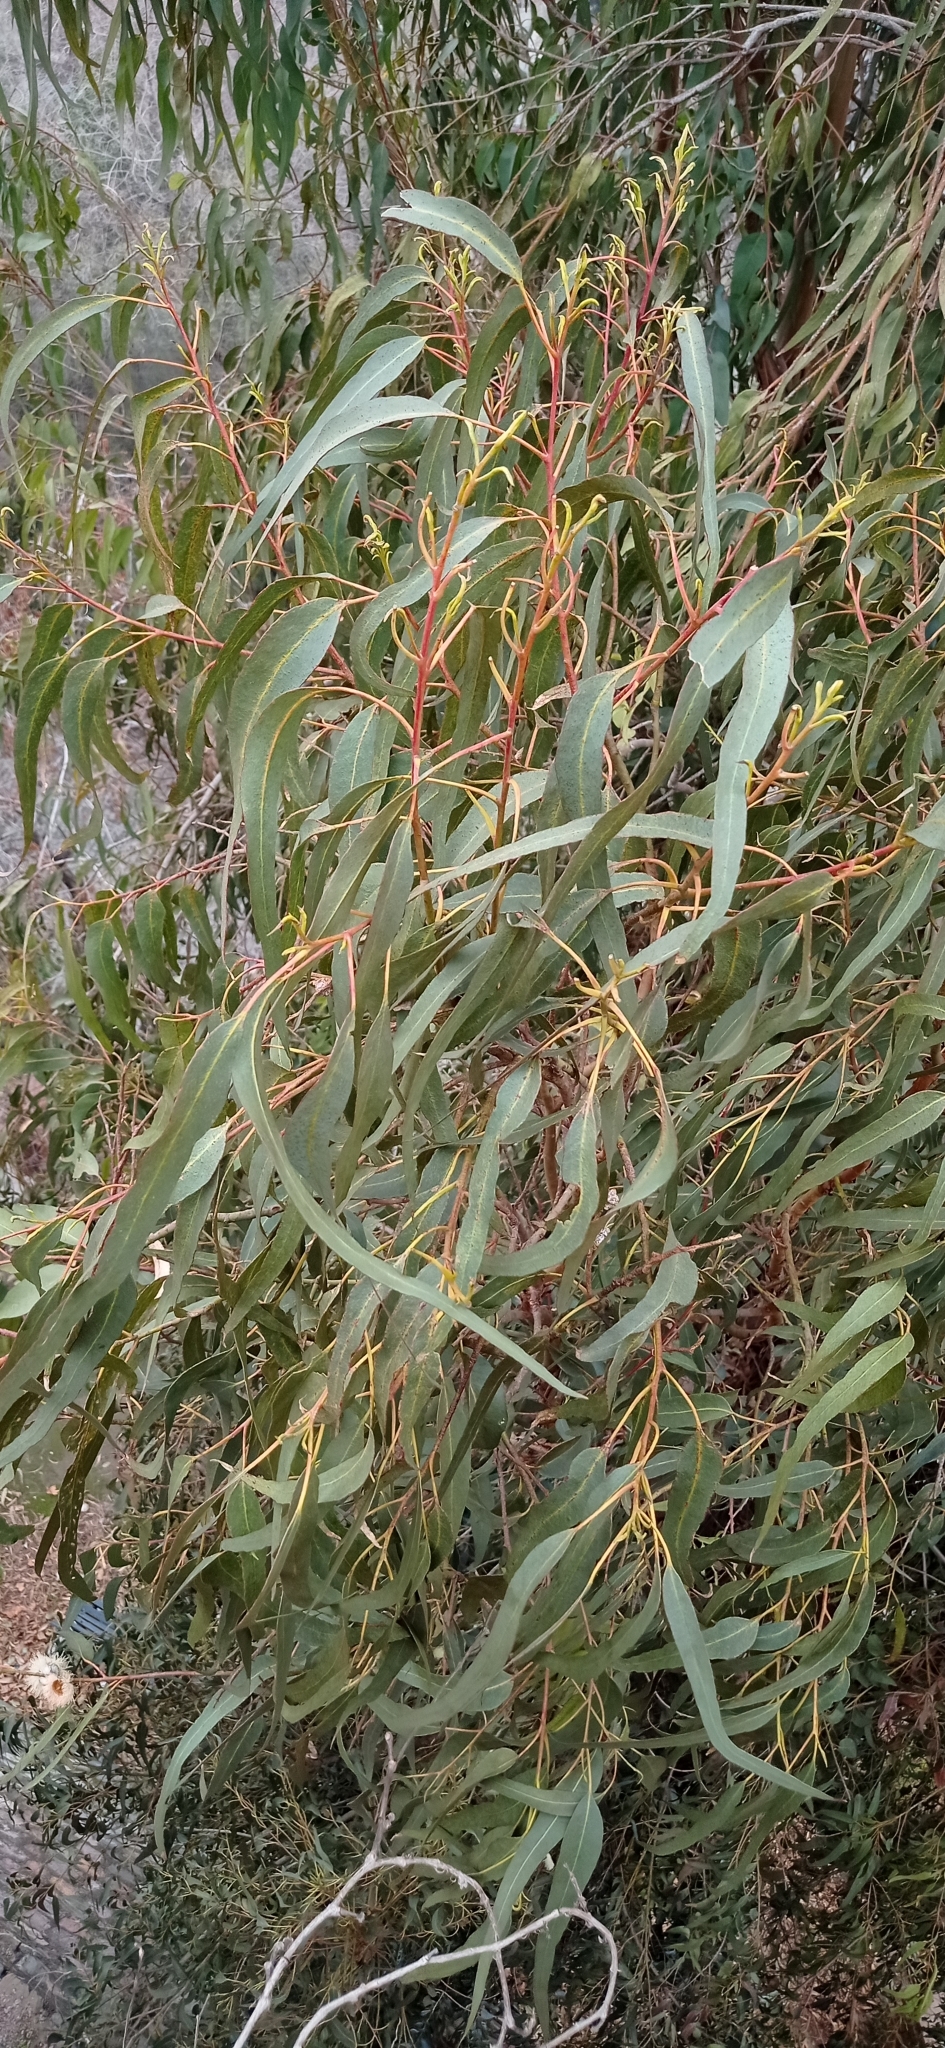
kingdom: Plantae
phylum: Tracheophyta
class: Magnoliopsida
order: Myrtales
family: Myrtaceae
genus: Eucalyptus
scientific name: Eucalyptus globulus
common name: Southern blue-gum
